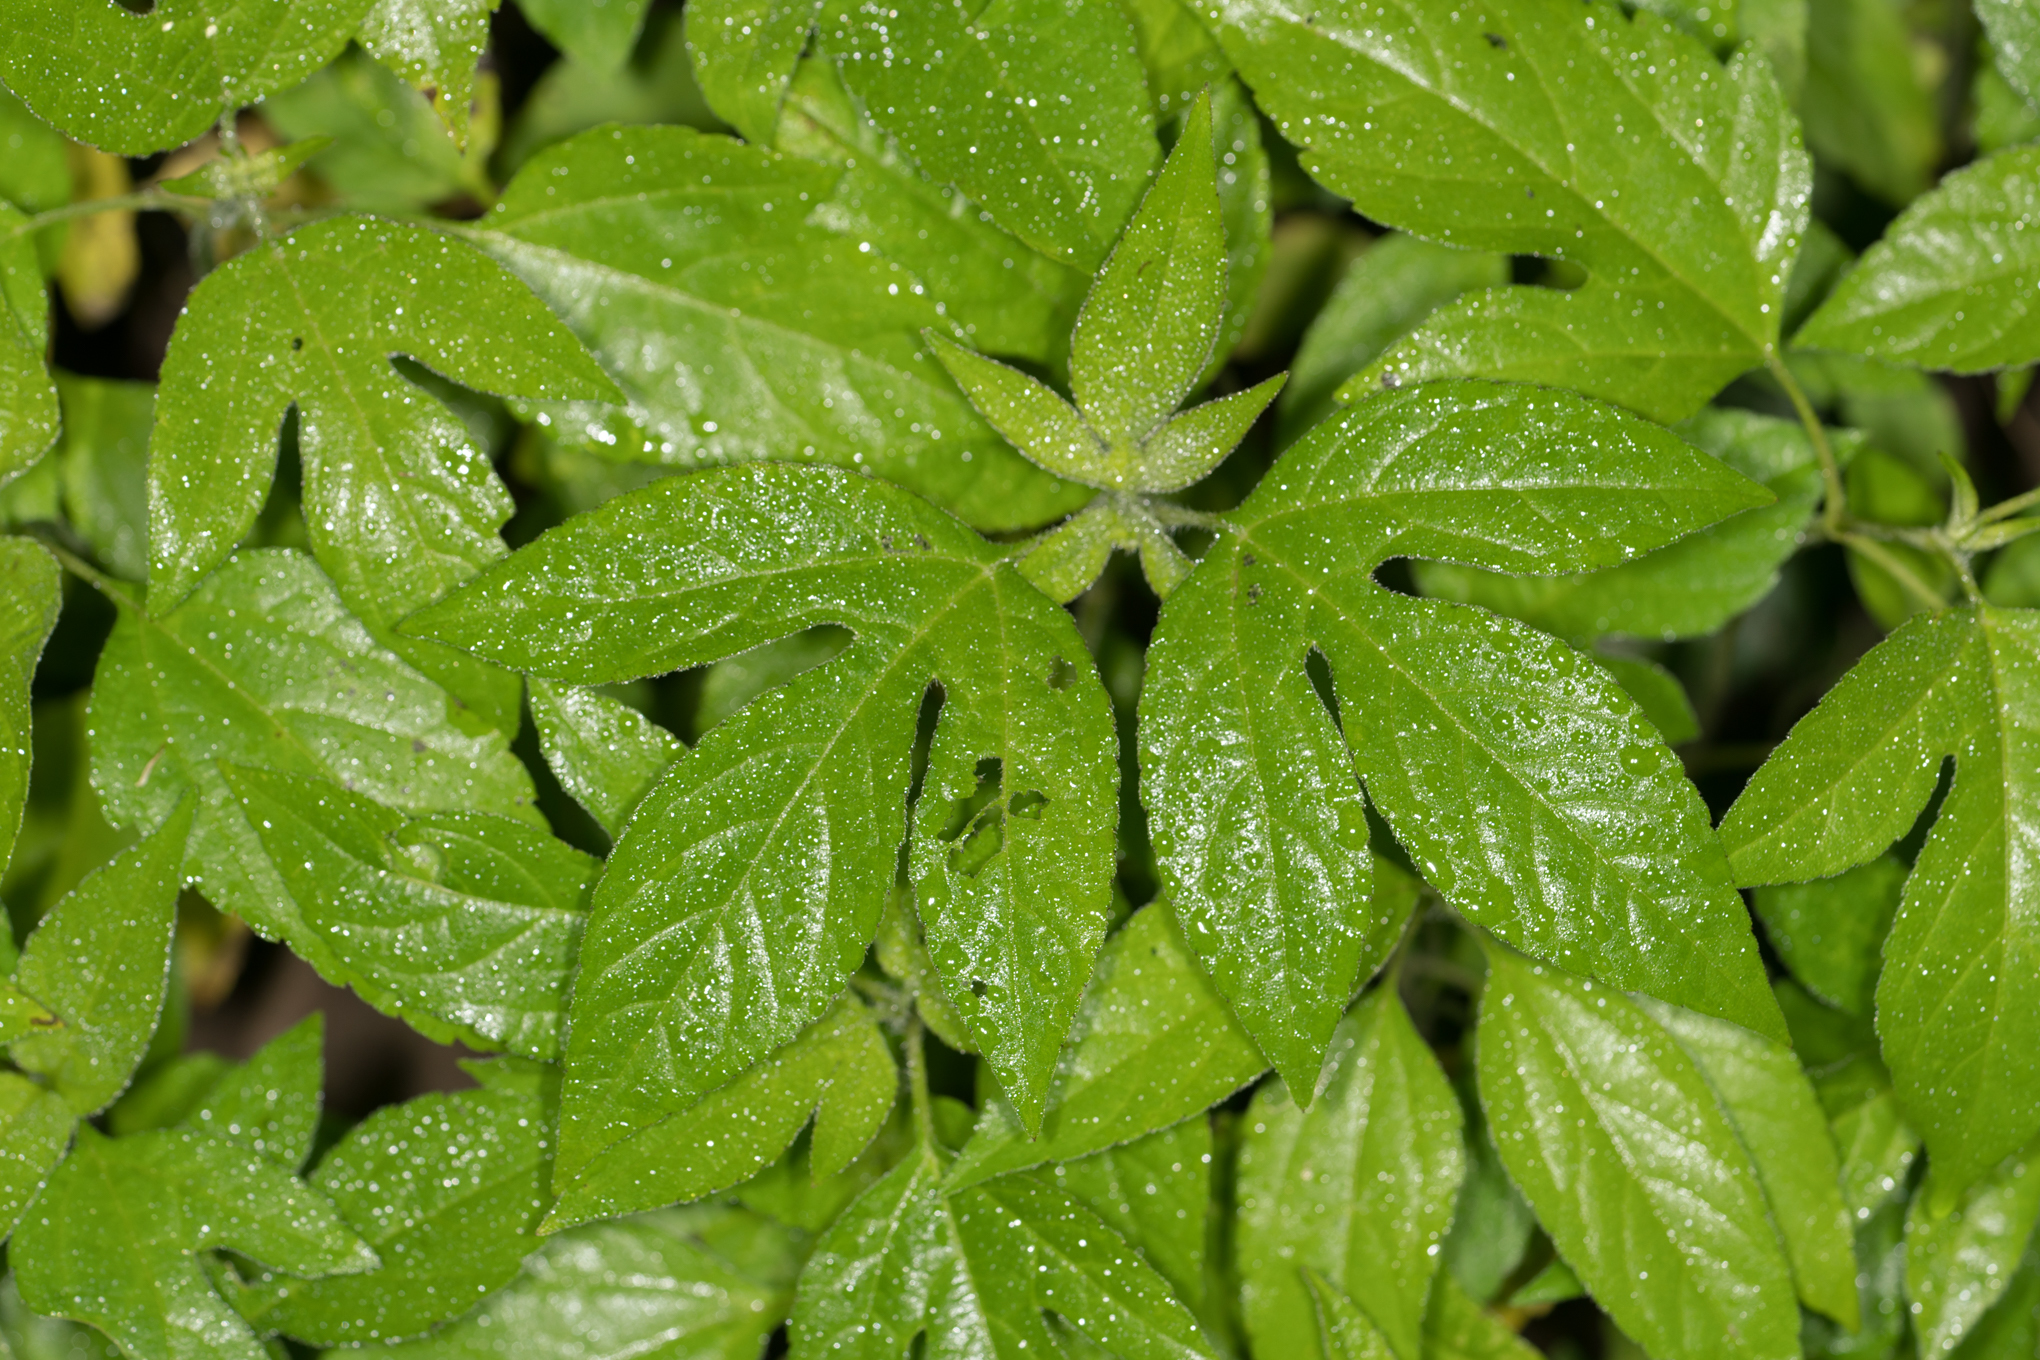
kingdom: Plantae
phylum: Tracheophyta
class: Magnoliopsida
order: Asterales
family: Asteraceae
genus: Ambrosia
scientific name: Ambrosia trifida
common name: Giant ragweed
